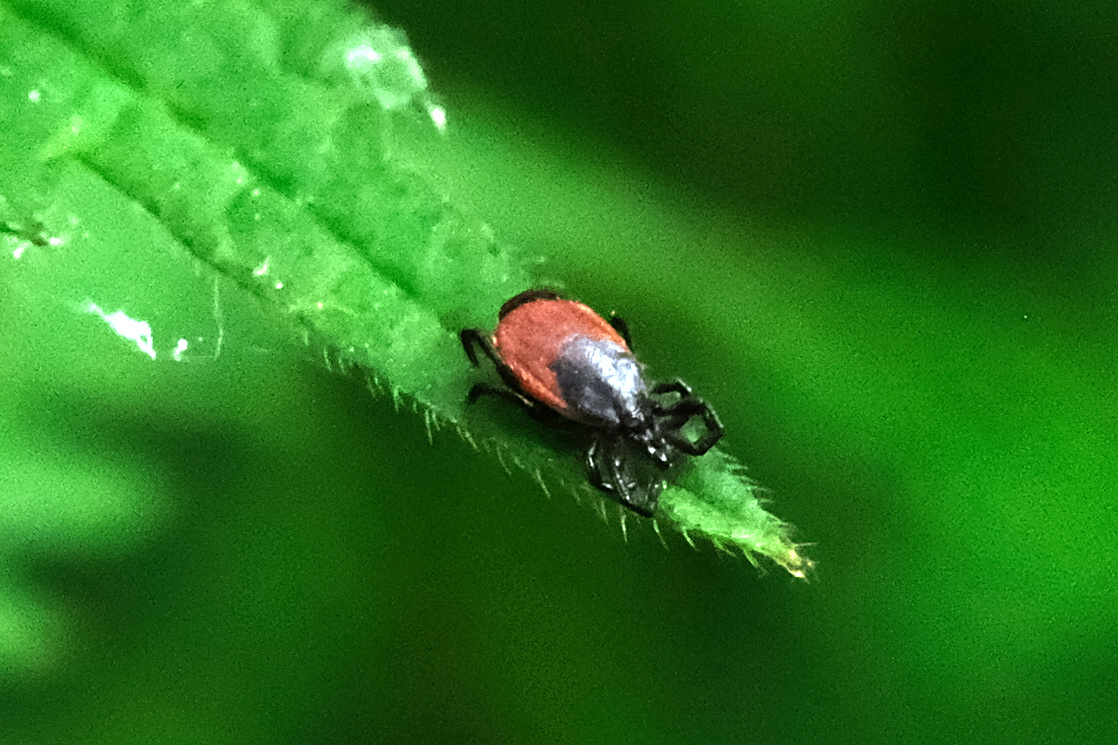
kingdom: Animalia
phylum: Arthropoda
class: Arachnida
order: Ixodida
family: Ixodidae
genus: Ixodes
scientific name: Ixodes ricinus
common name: Castor bean tick
